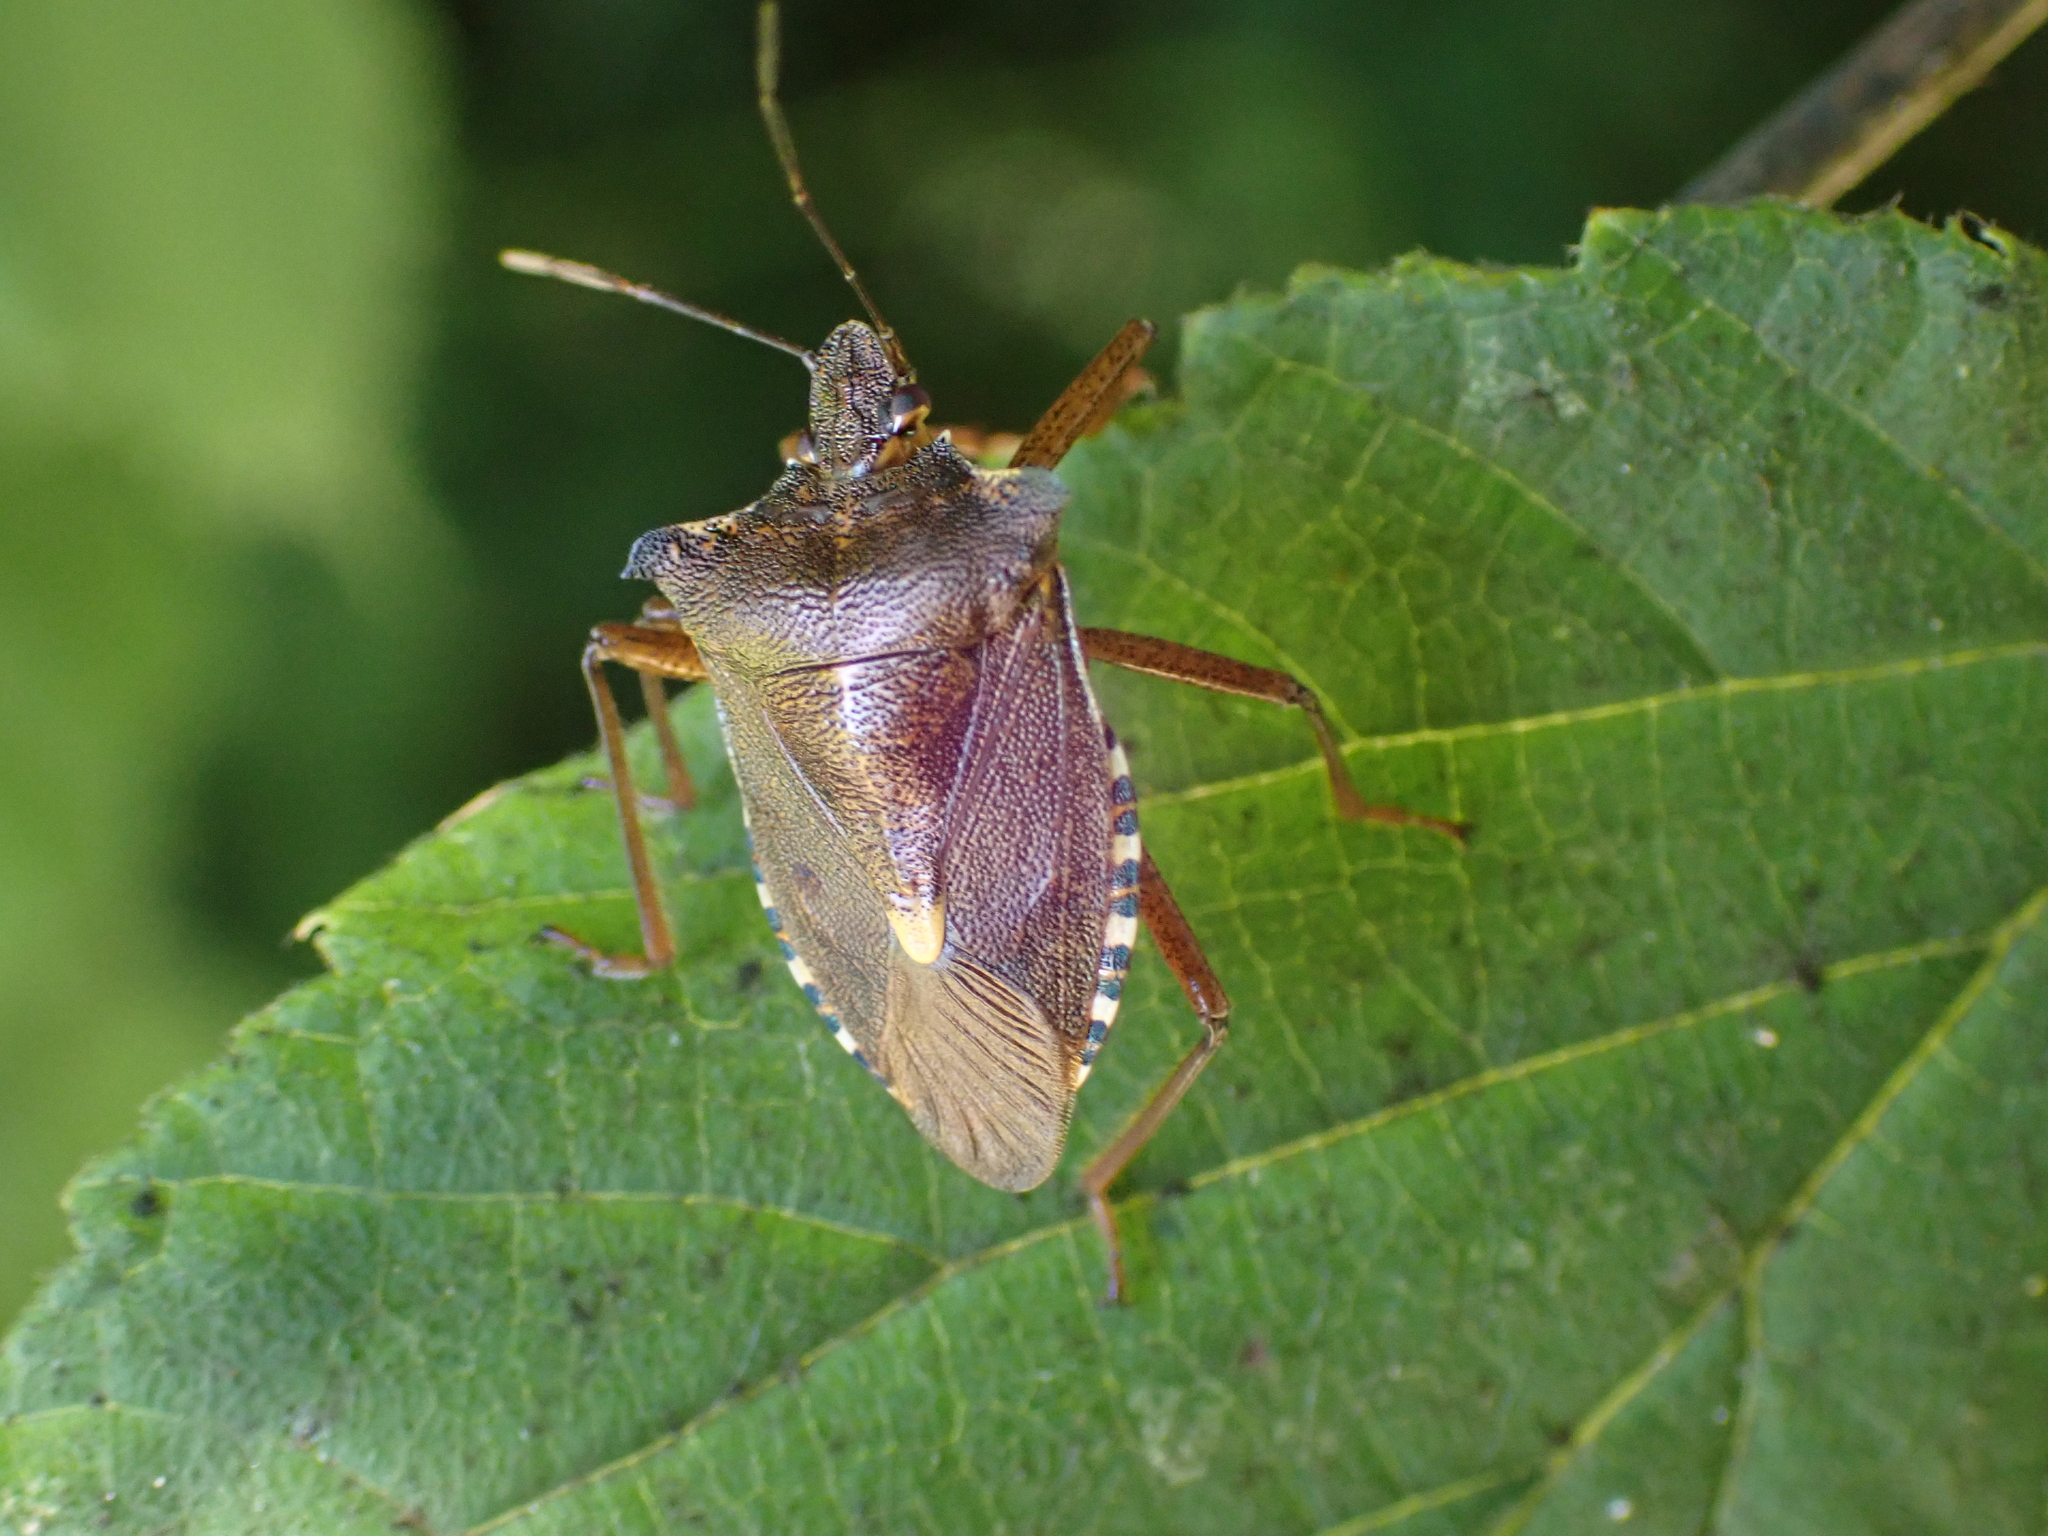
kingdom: Animalia
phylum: Arthropoda
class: Insecta
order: Hemiptera
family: Pentatomidae
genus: Pentatoma
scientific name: Pentatoma rufipes
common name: Forest bug
